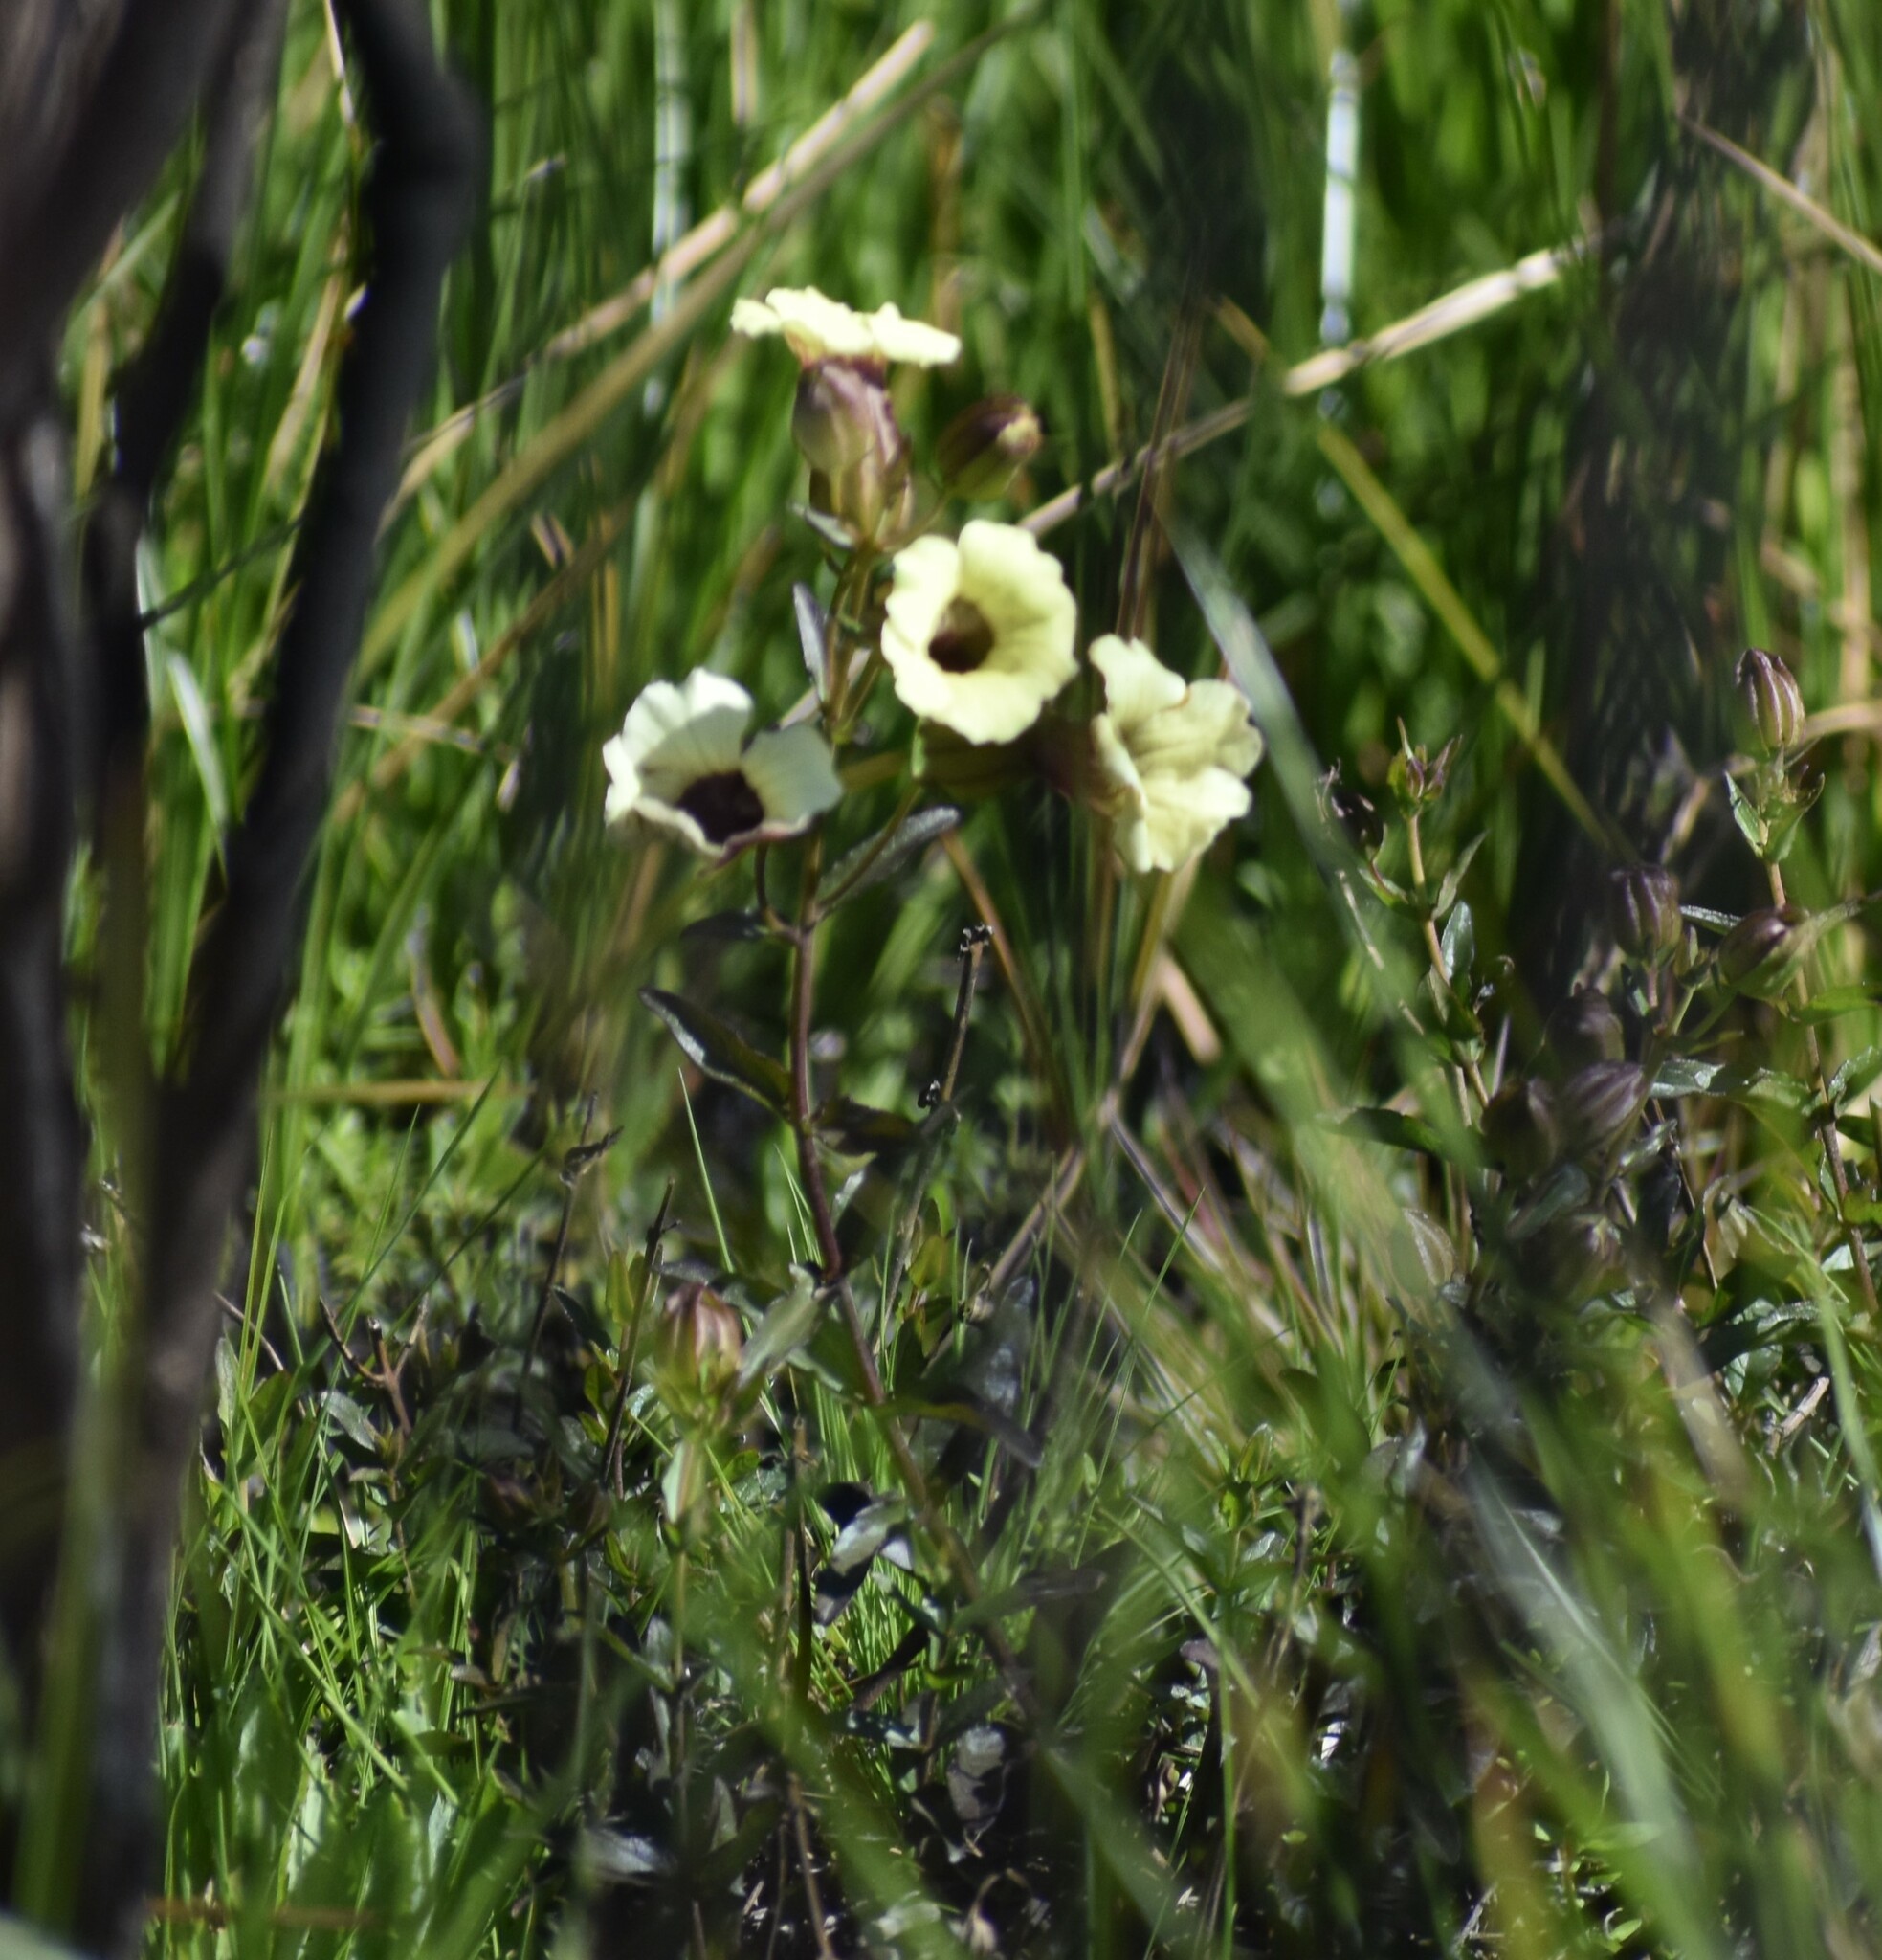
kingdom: Plantae
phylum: Tracheophyta
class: Magnoliopsida
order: Lamiales
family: Orobanchaceae
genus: Melasma
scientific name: Melasma scabrum
